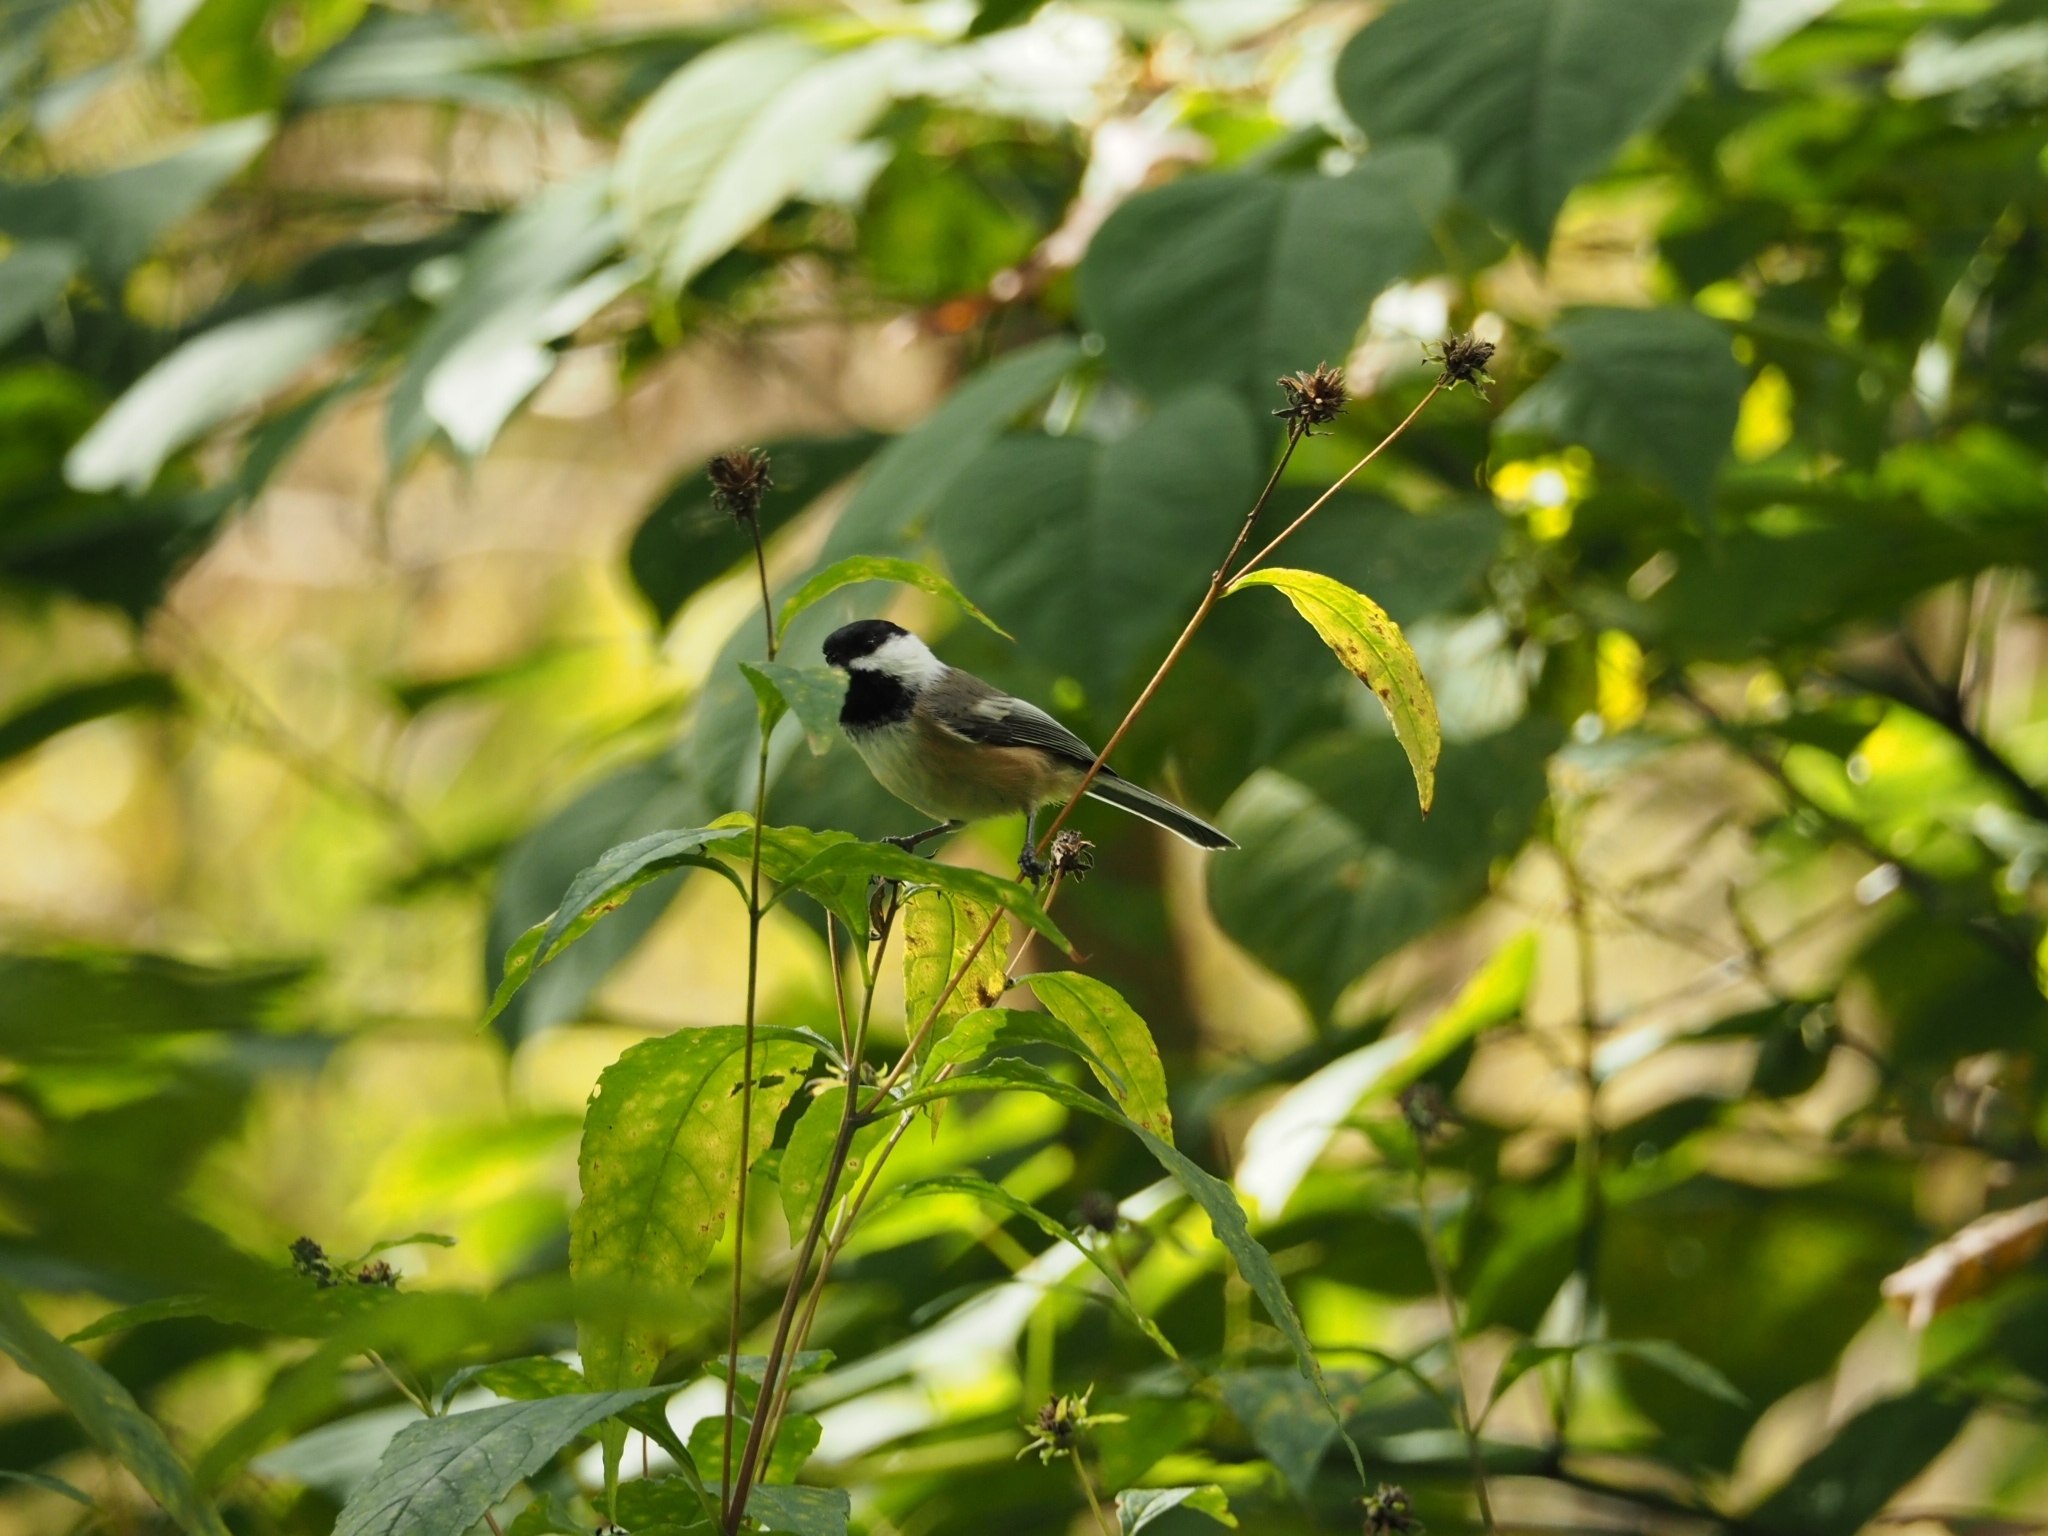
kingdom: Animalia
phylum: Chordata
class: Aves
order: Passeriformes
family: Paridae
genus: Poecile
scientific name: Poecile atricapillus
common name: Black-capped chickadee
